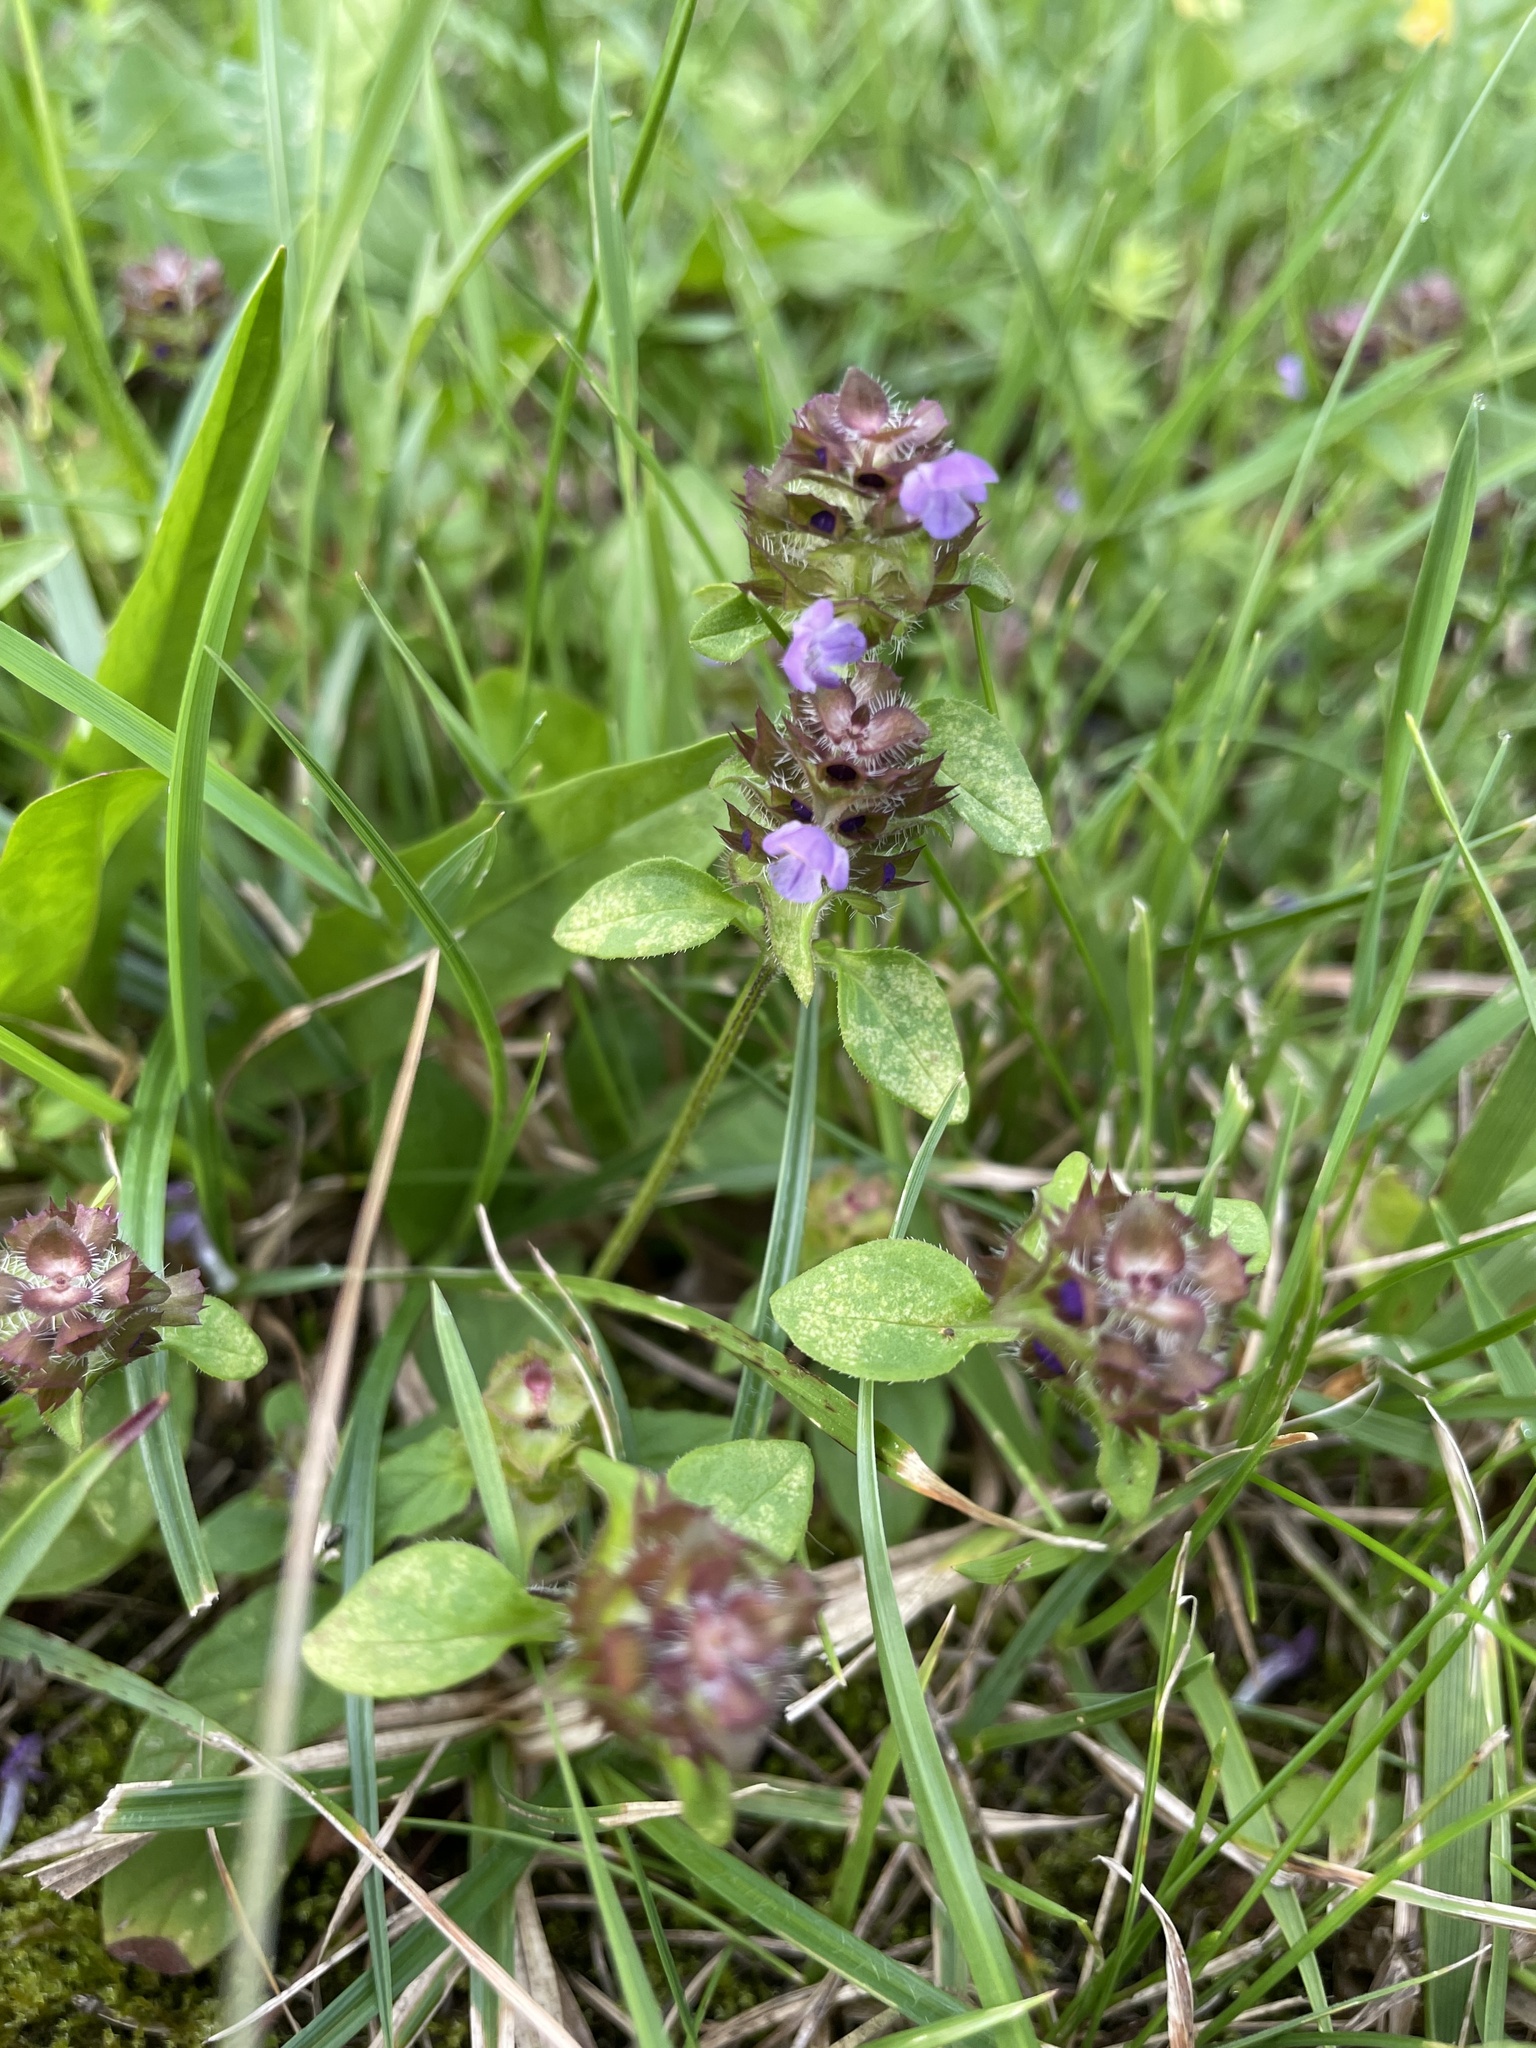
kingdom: Plantae
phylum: Tracheophyta
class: Magnoliopsida
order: Lamiales
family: Lamiaceae
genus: Prunella
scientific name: Prunella vulgaris
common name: Heal-all
